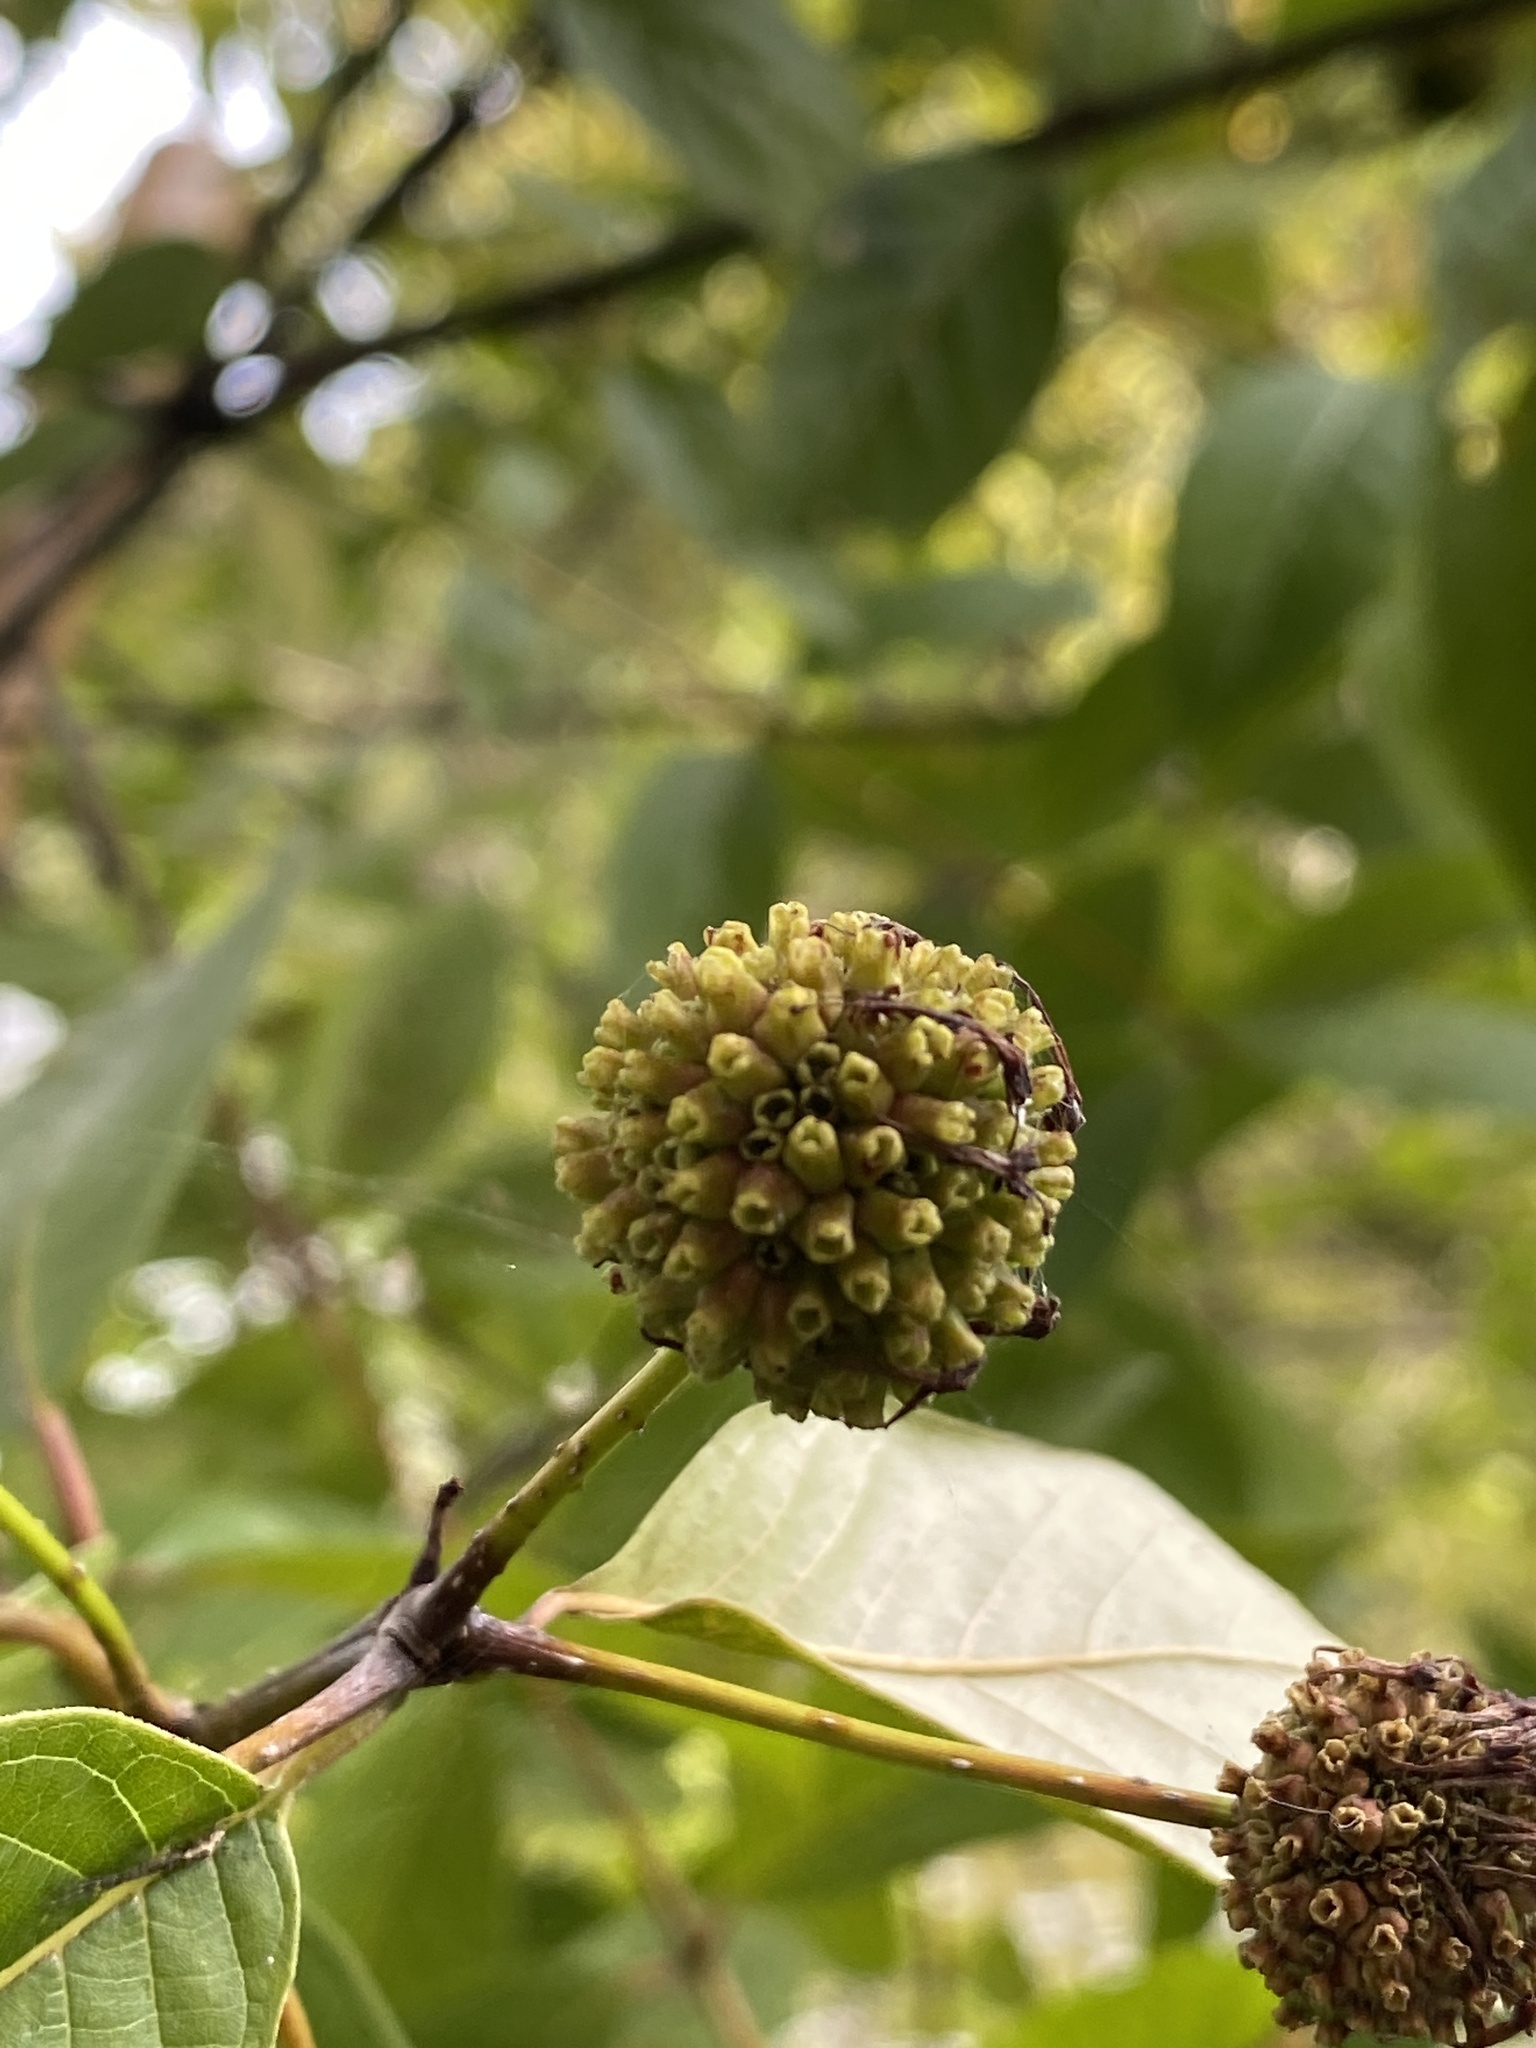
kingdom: Plantae
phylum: Tracheophyta
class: Magnoliopsida
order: Gentianales
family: Rubiaceae
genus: Cephalanthus
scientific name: Cephalanthus occidentalis
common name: Button-willow
